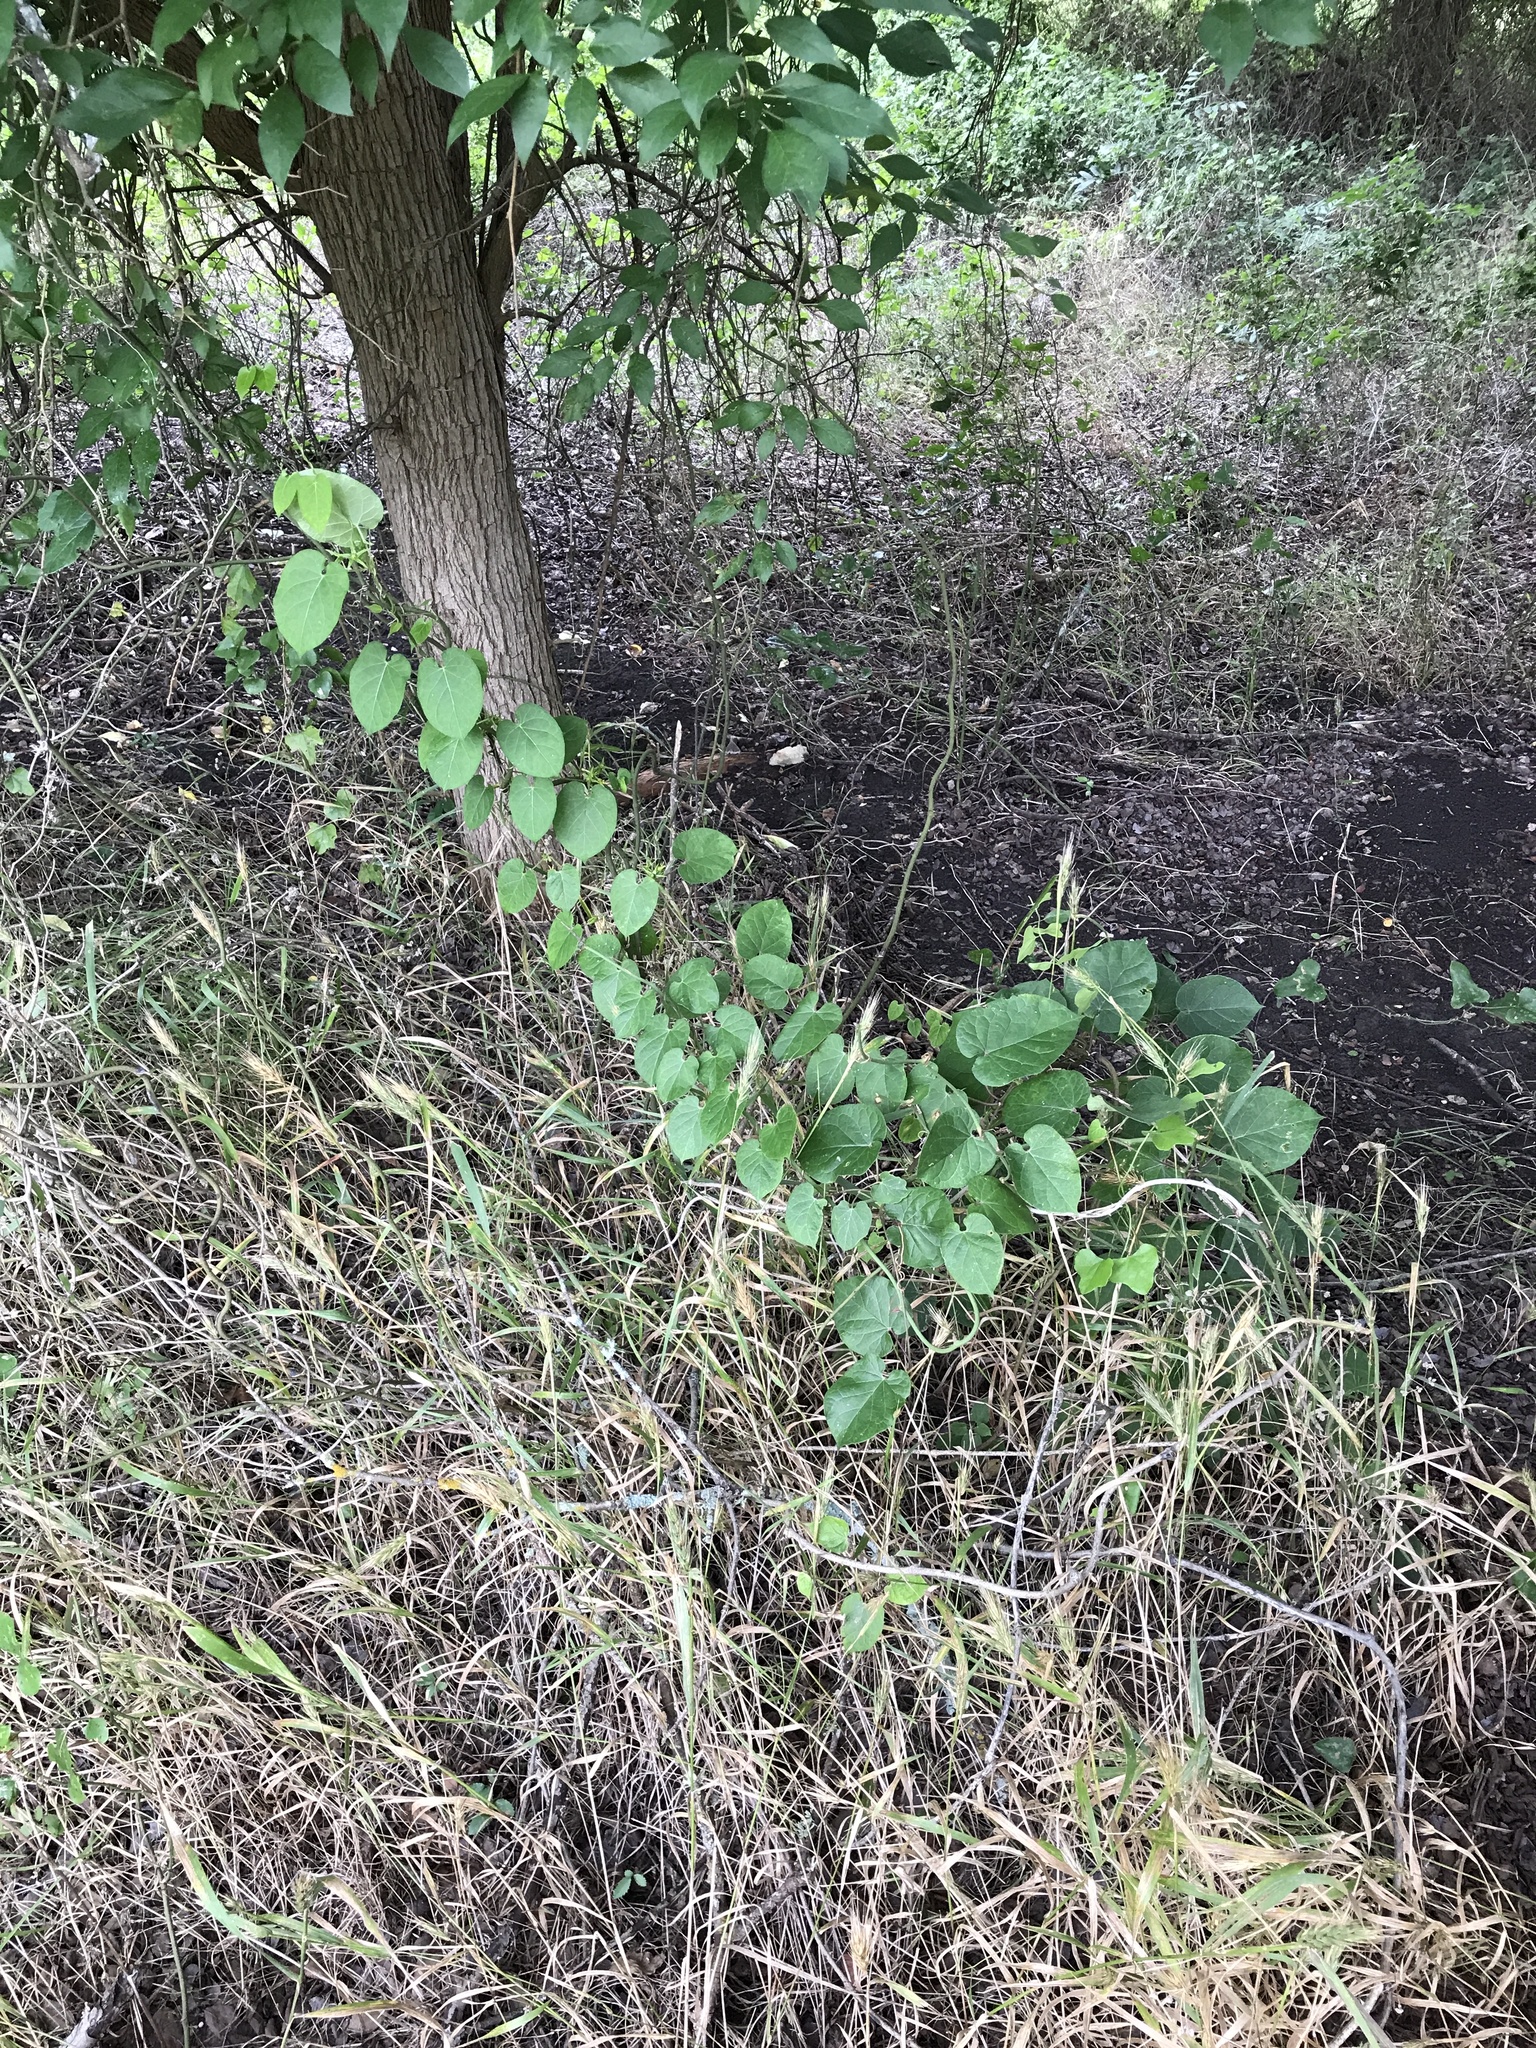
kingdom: Plantae
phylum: Tracheophyta
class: Magnoliopsida
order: Gentianales
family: Apocynaceae
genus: Gonolobus
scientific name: Gonolobus suberosus
